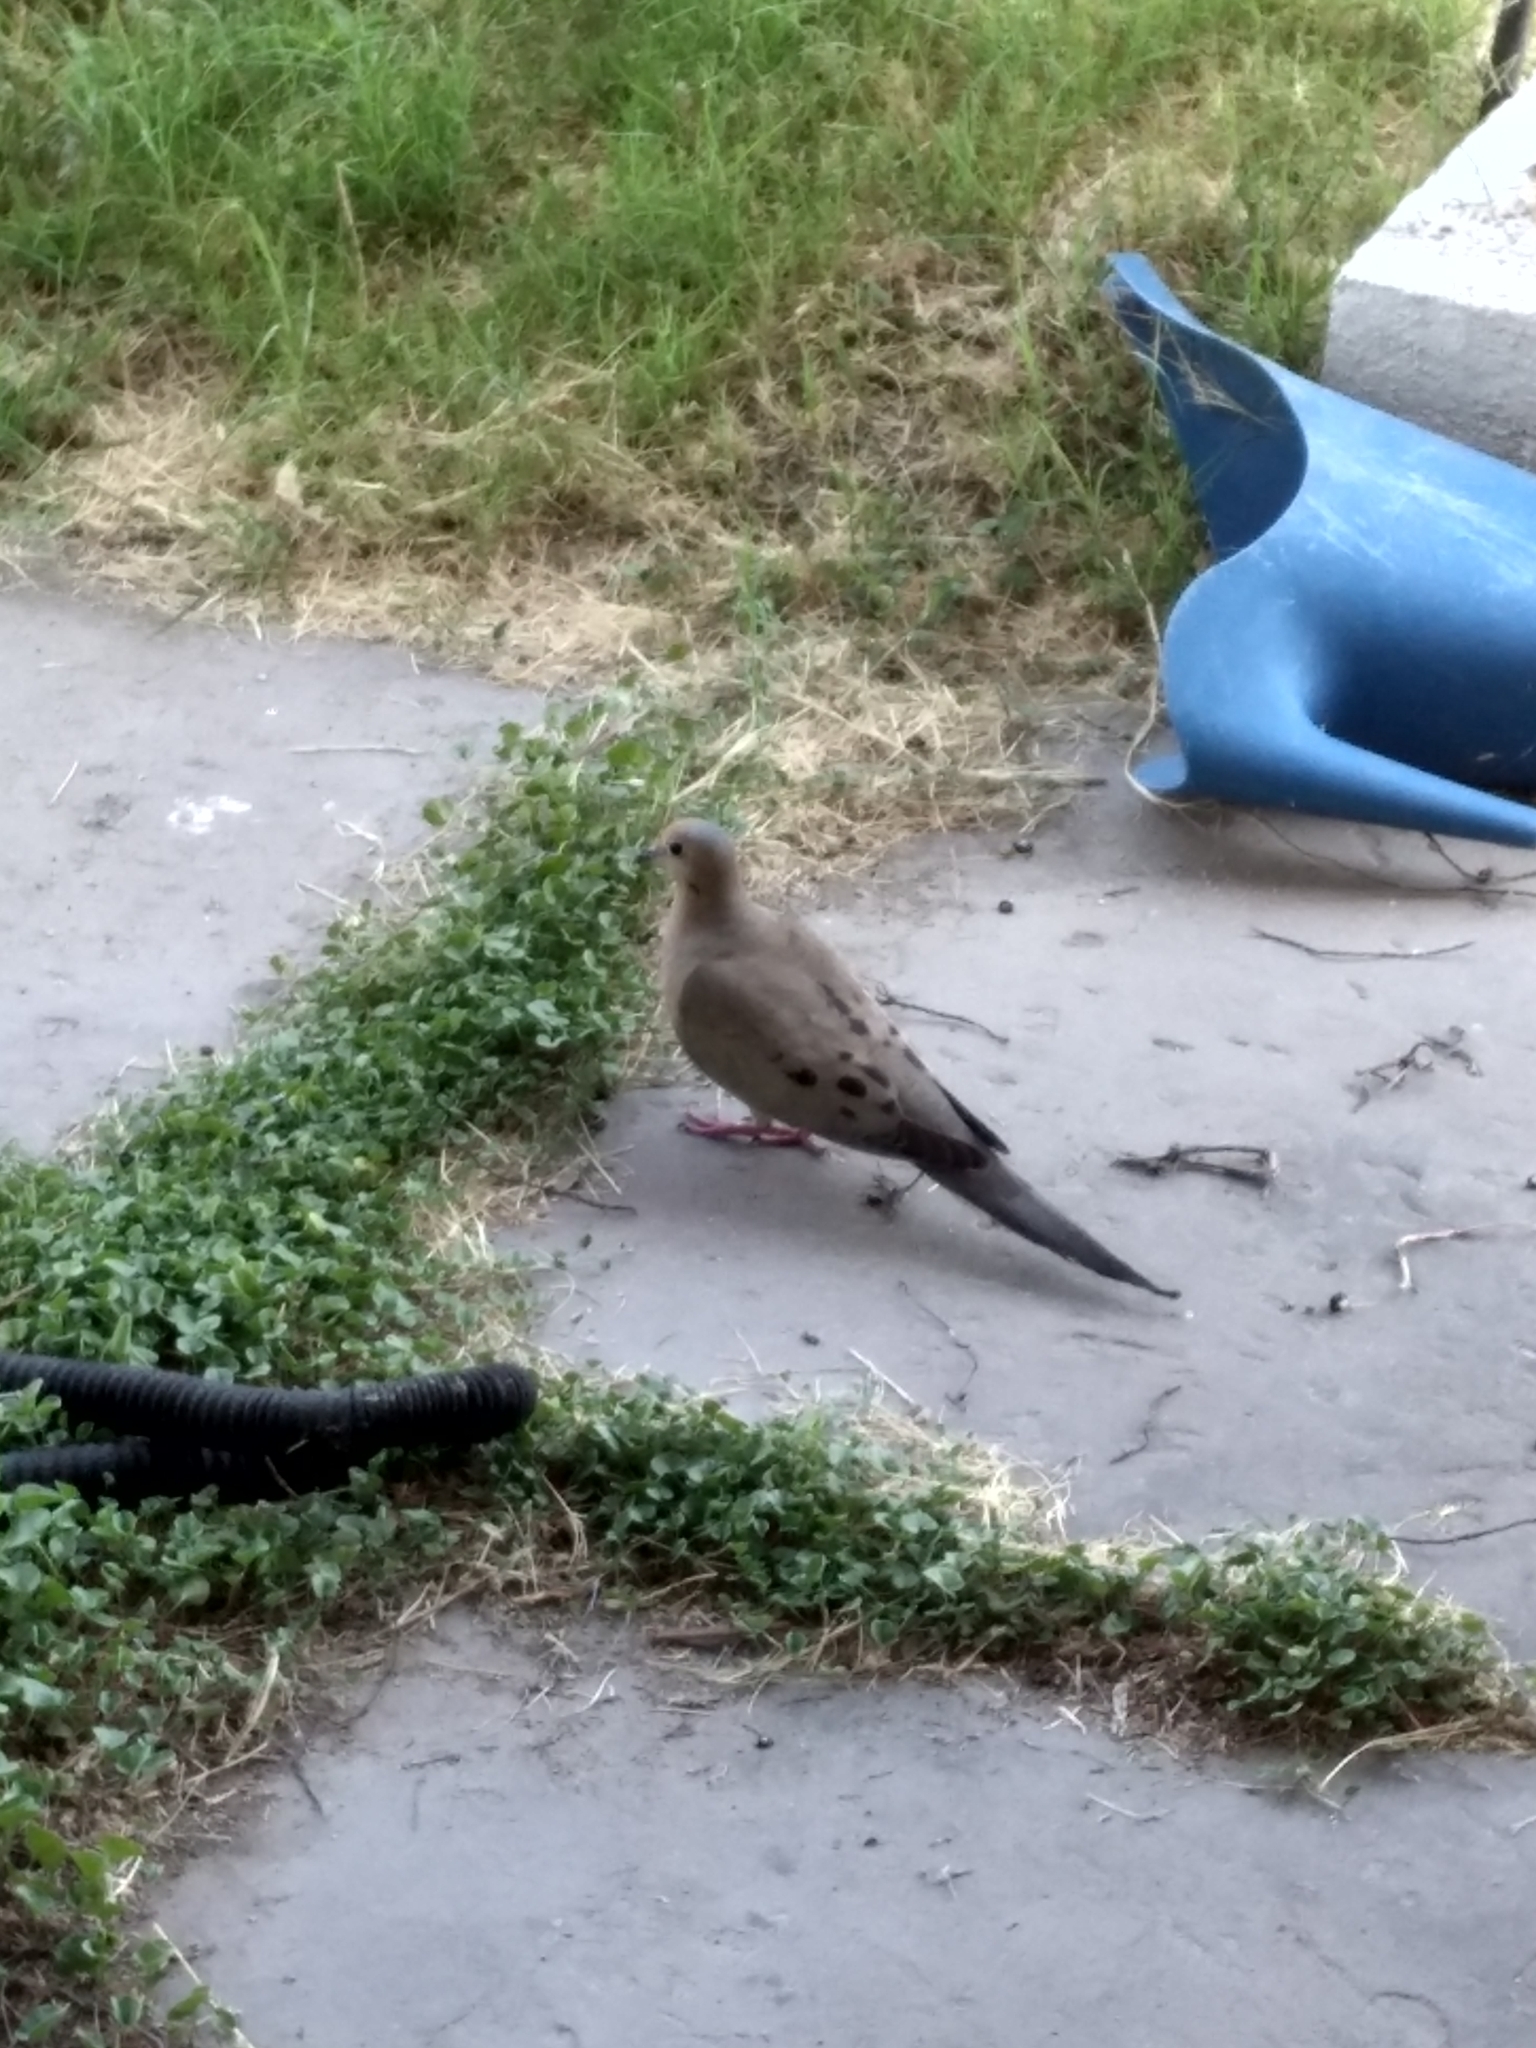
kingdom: Animalia
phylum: Chordata
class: Aves
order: Columbiformes
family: Columbidae
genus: Zenaida
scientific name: Zenaida macroura
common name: Mourning dove
